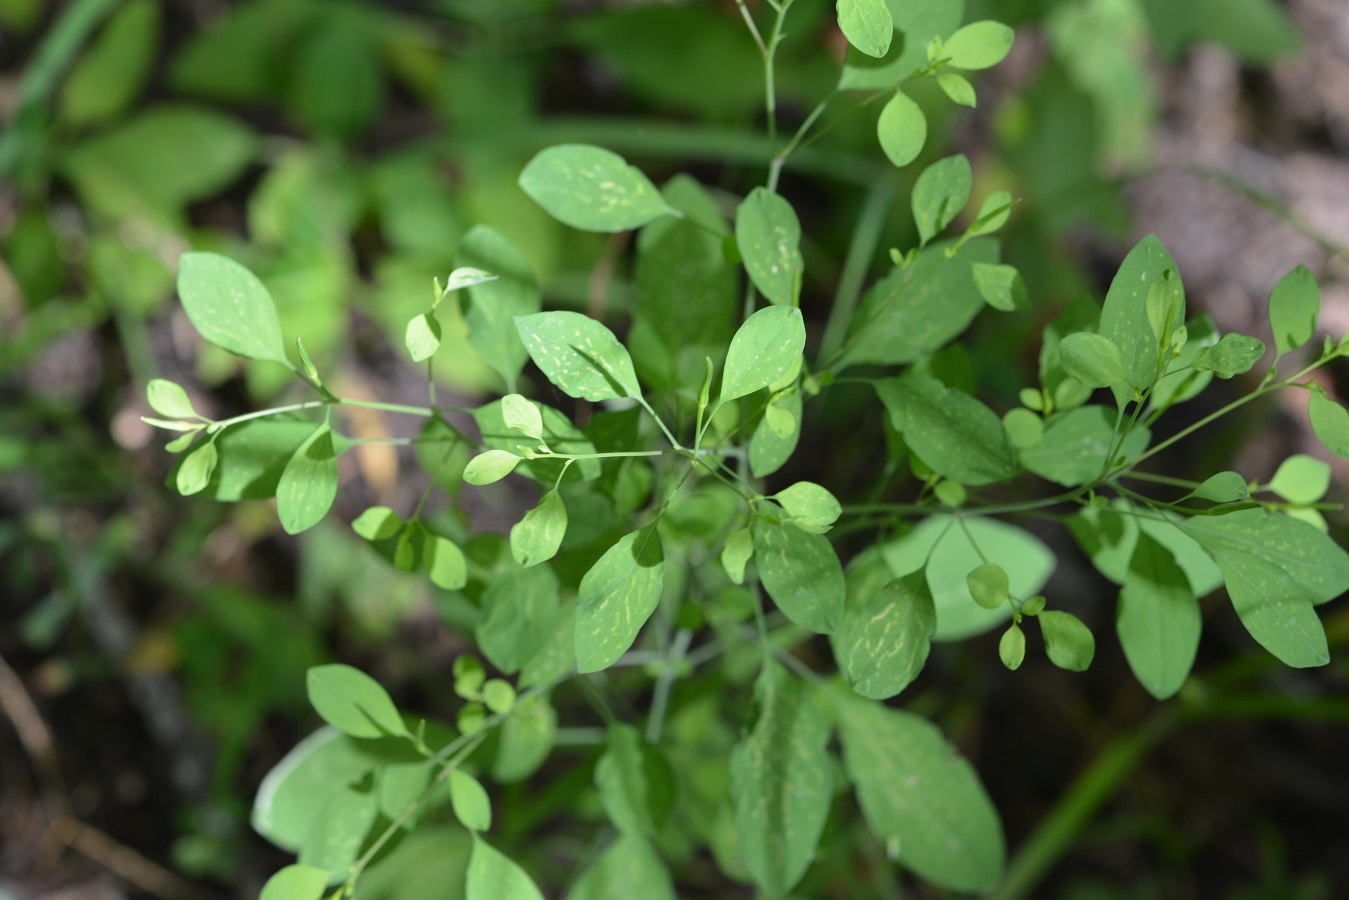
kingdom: Plantae
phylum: Tracheophyta
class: Magnoliopsida
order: Asterales
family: Asteraceae
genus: Porophyllum
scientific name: Porophyllum ruderale
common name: Yerba porosa
